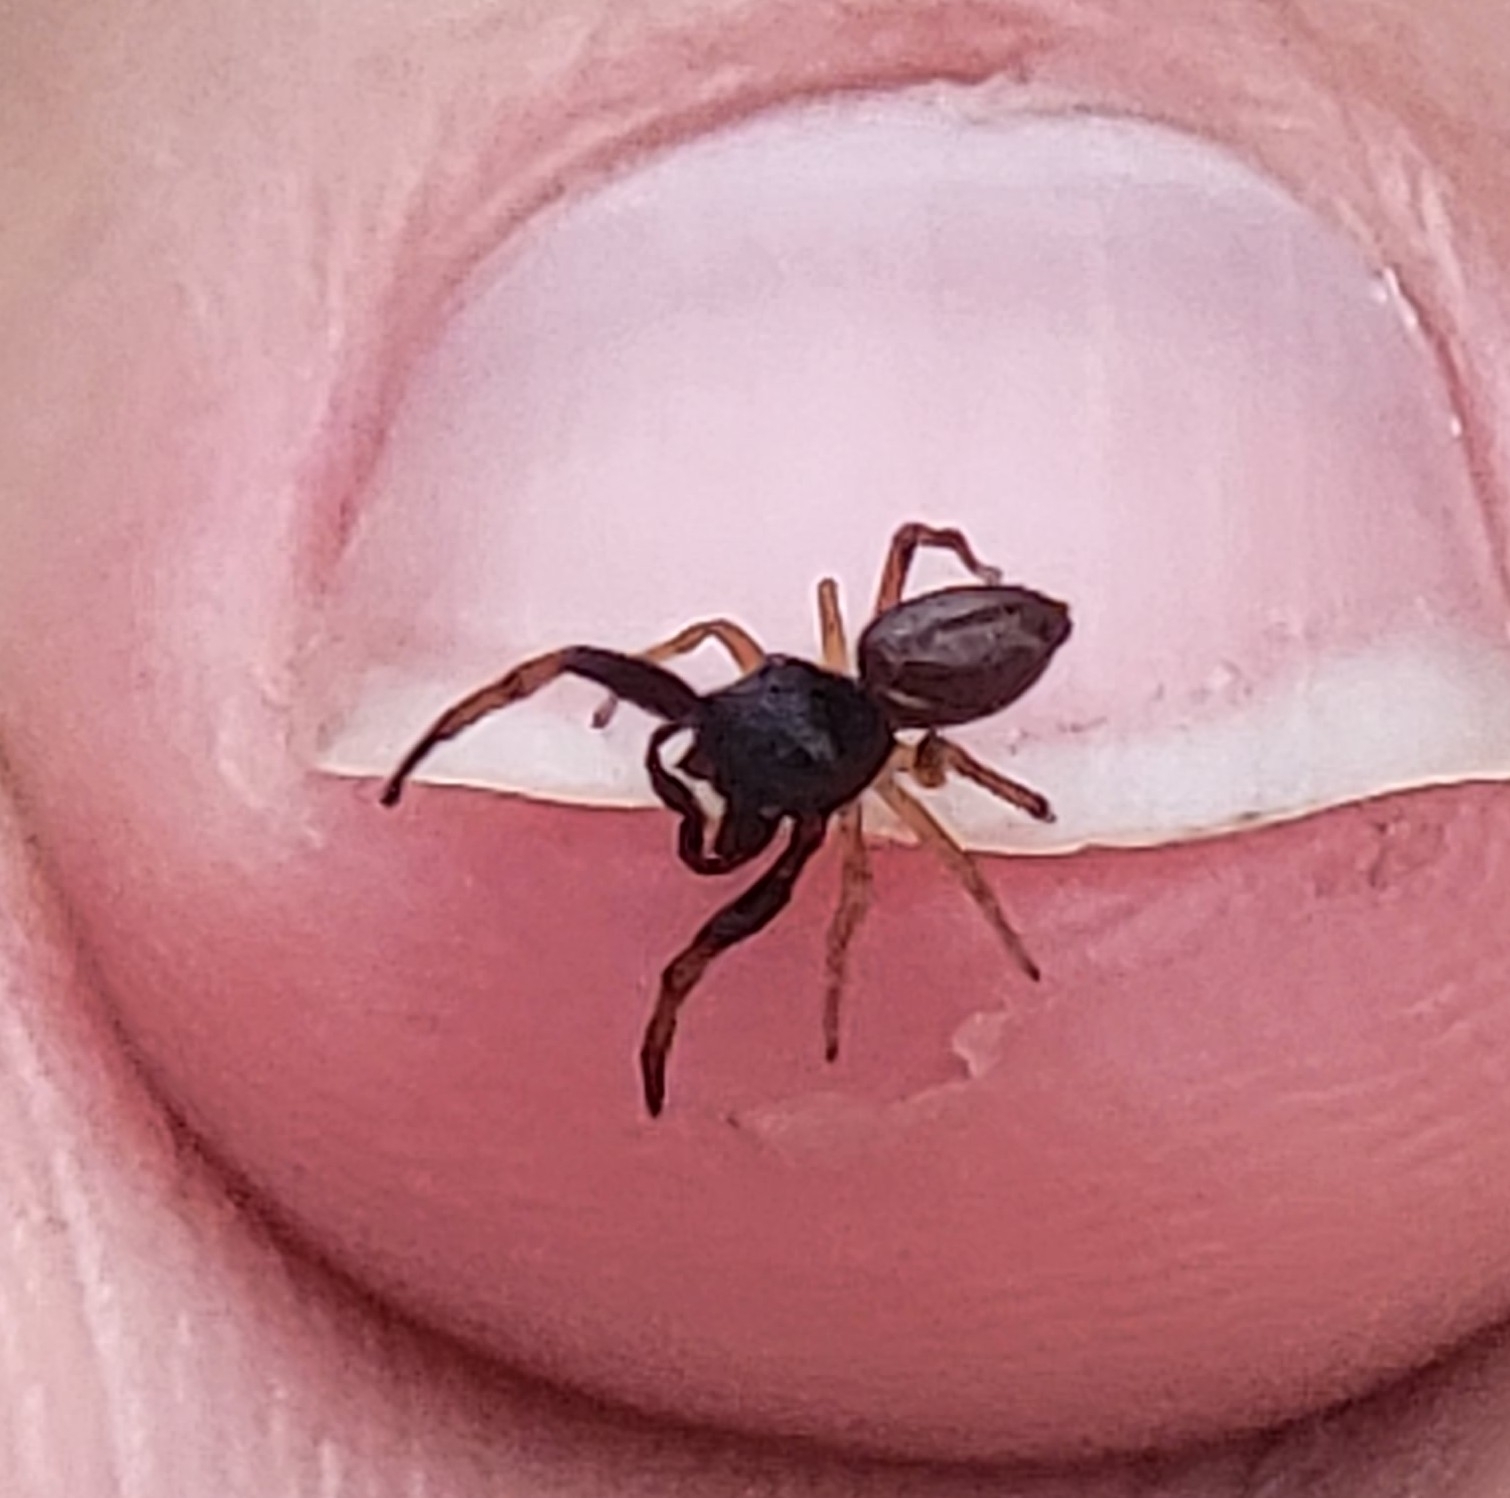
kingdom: Animalia
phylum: Arthropoda
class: Arachnida
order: Araneae
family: Salticidae
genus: Zygoballus
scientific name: Zygoballus rufipes
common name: Jumping spiders
